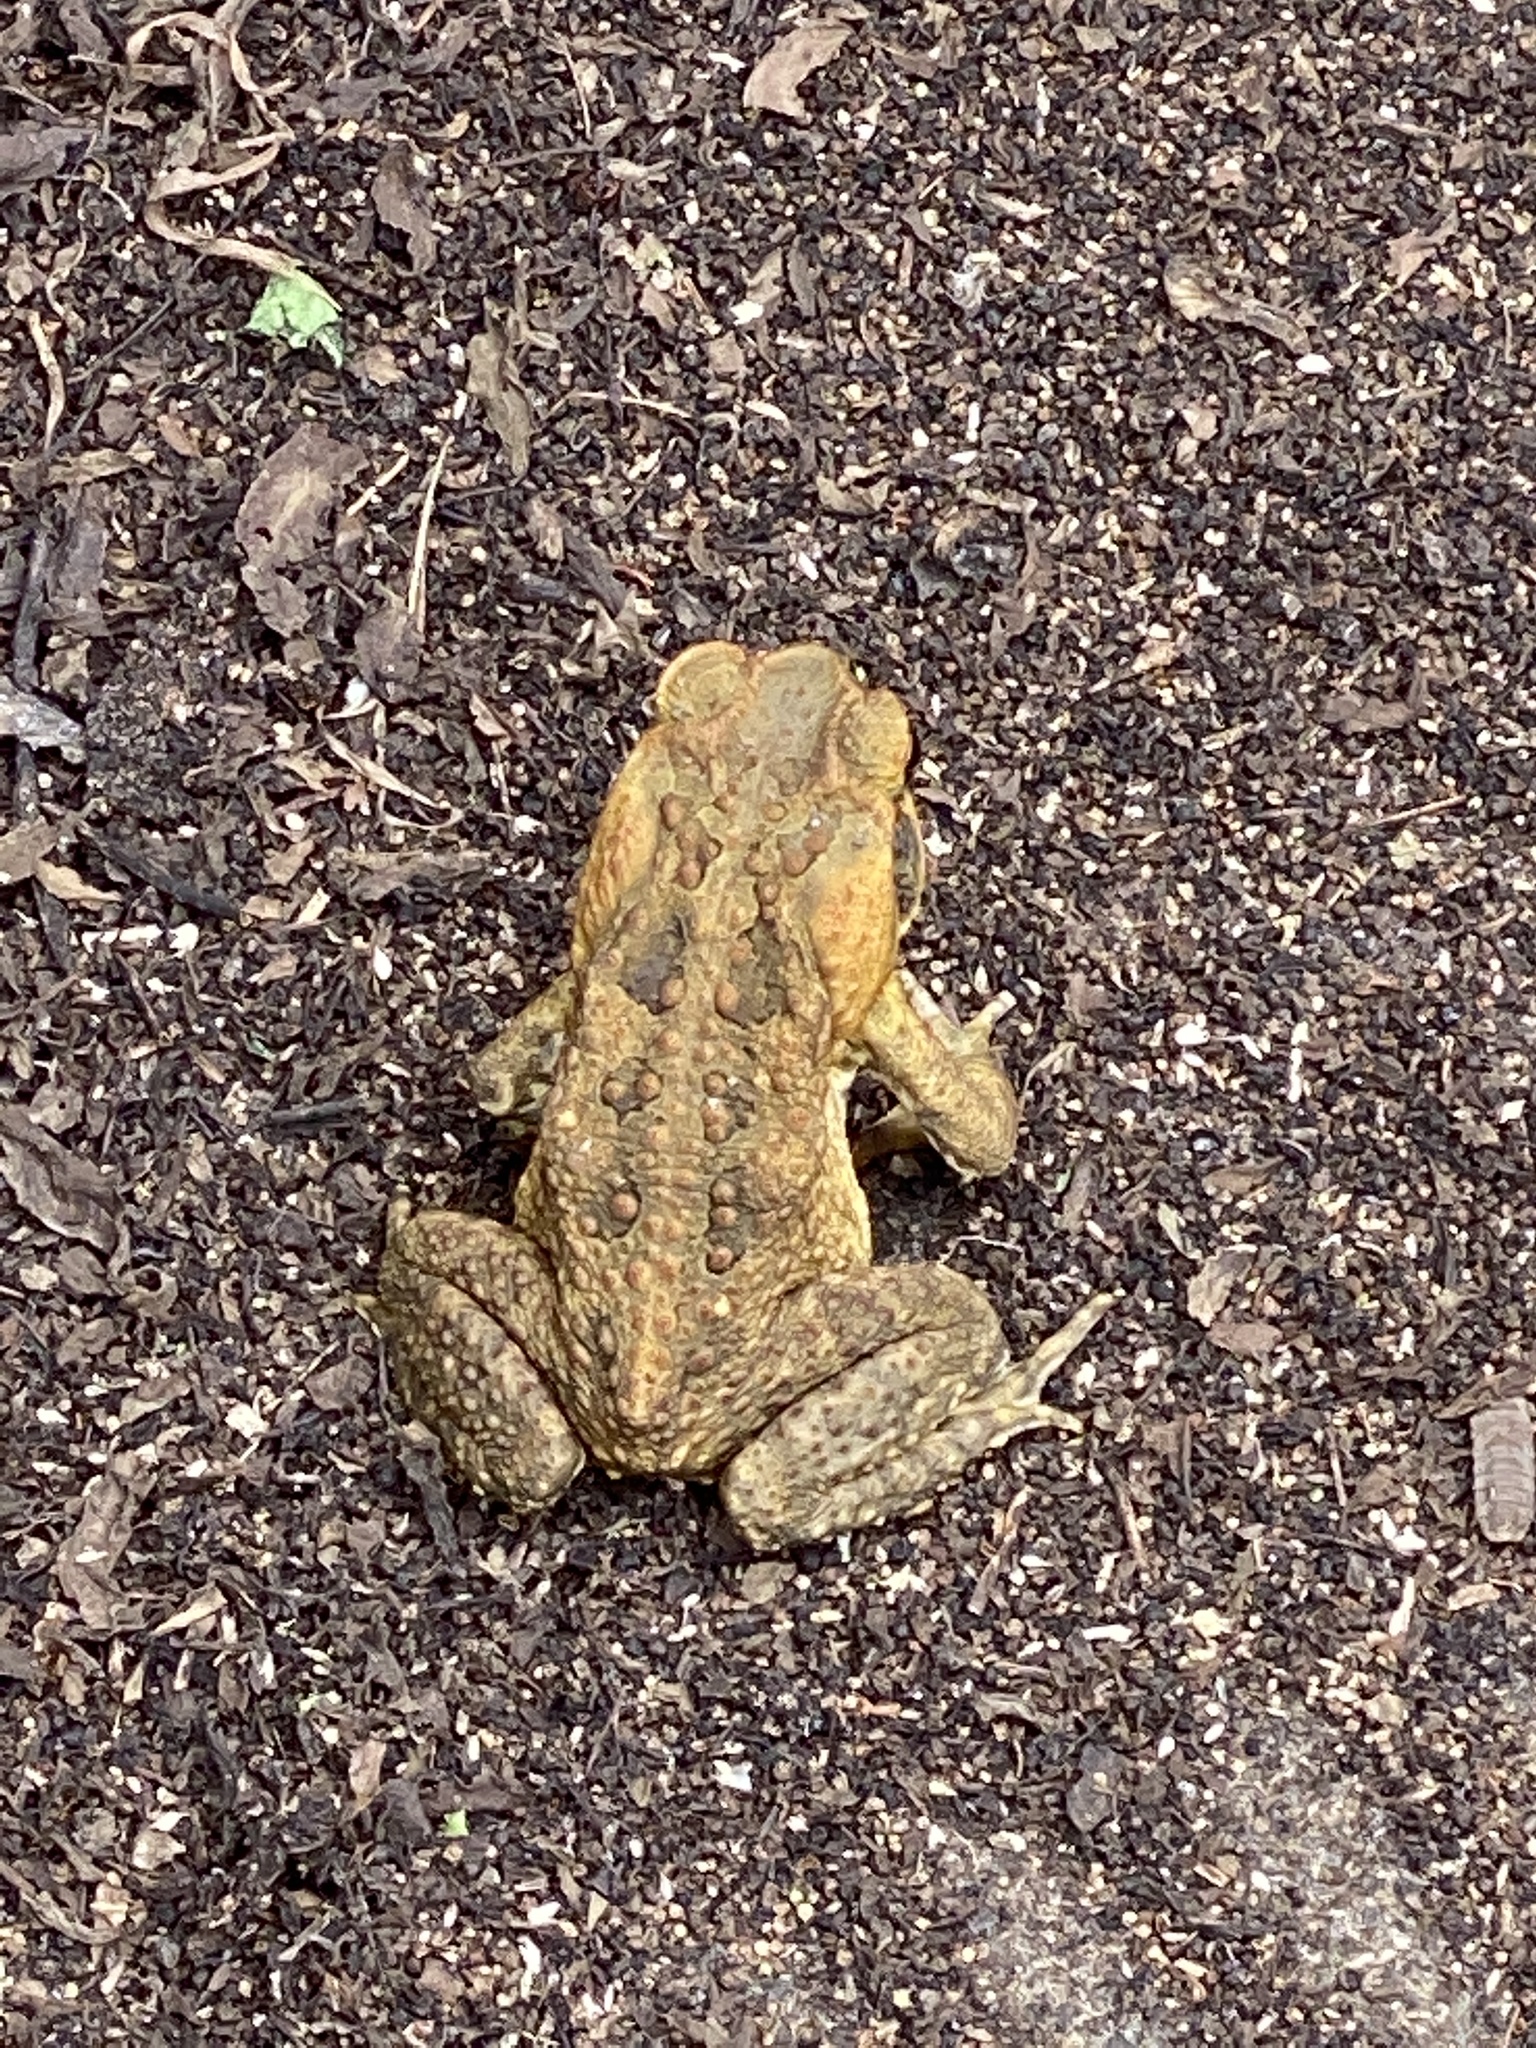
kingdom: Animalia
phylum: Chordata
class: Amphibia
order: Anura
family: Bufonidae
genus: Rhinella
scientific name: Rhinella marina
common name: Cane toad
